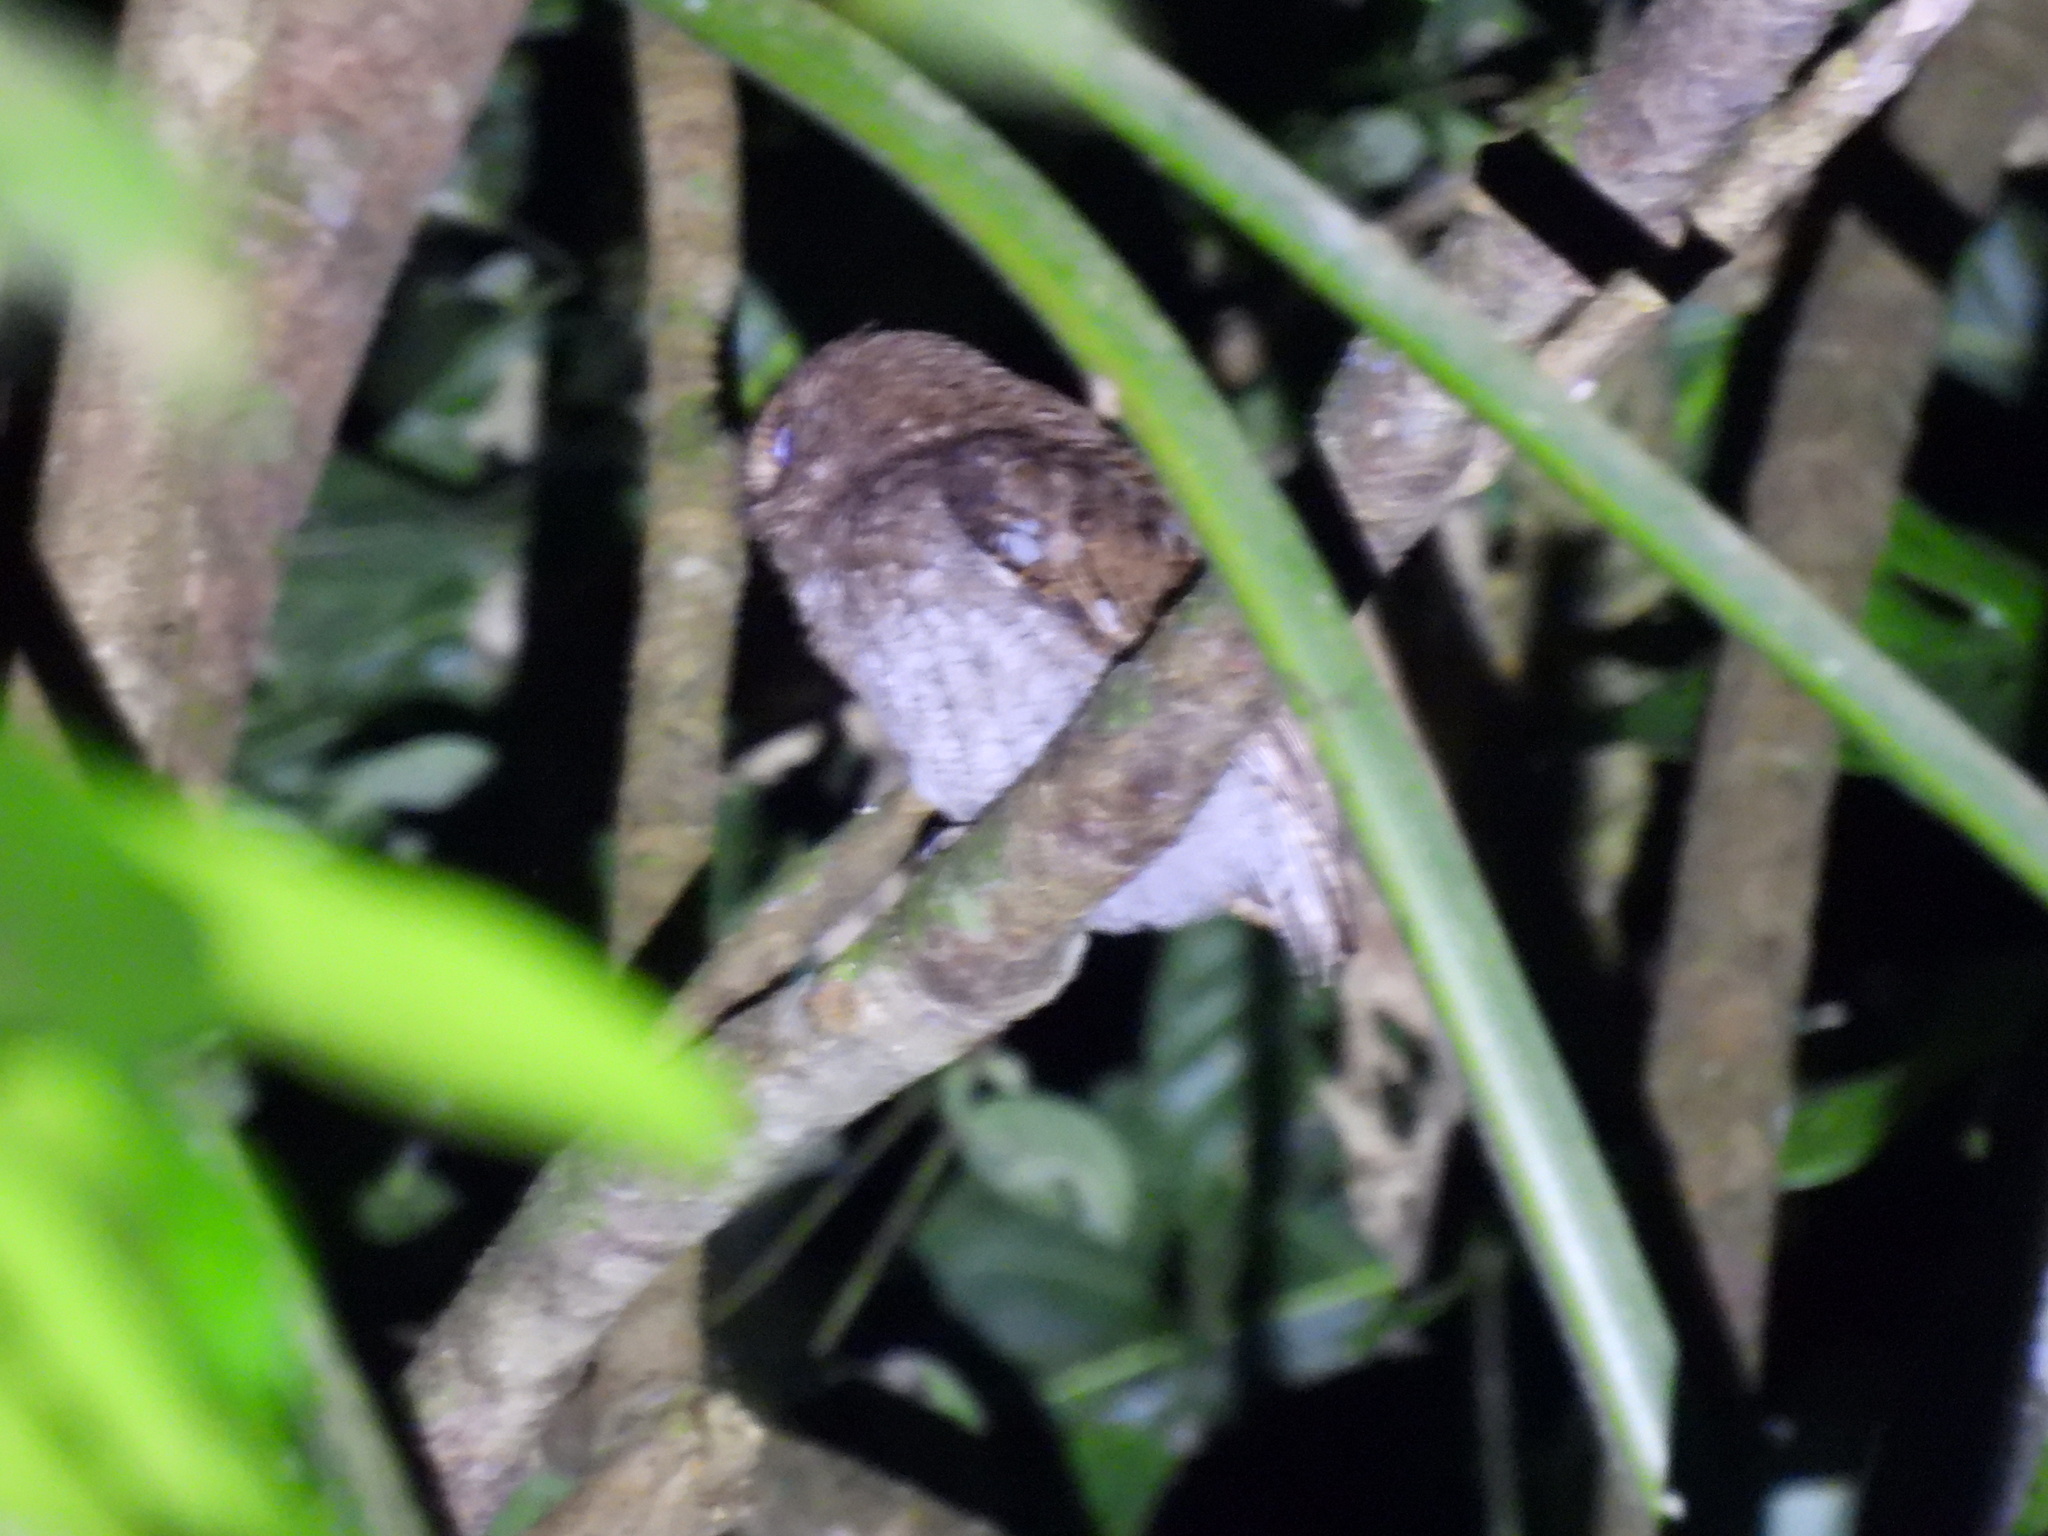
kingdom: Animalia
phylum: Chordata
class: Aves
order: Strigiformes
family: Strigidae
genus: Megascops
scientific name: Megascops centralis
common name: Choco screech owl
